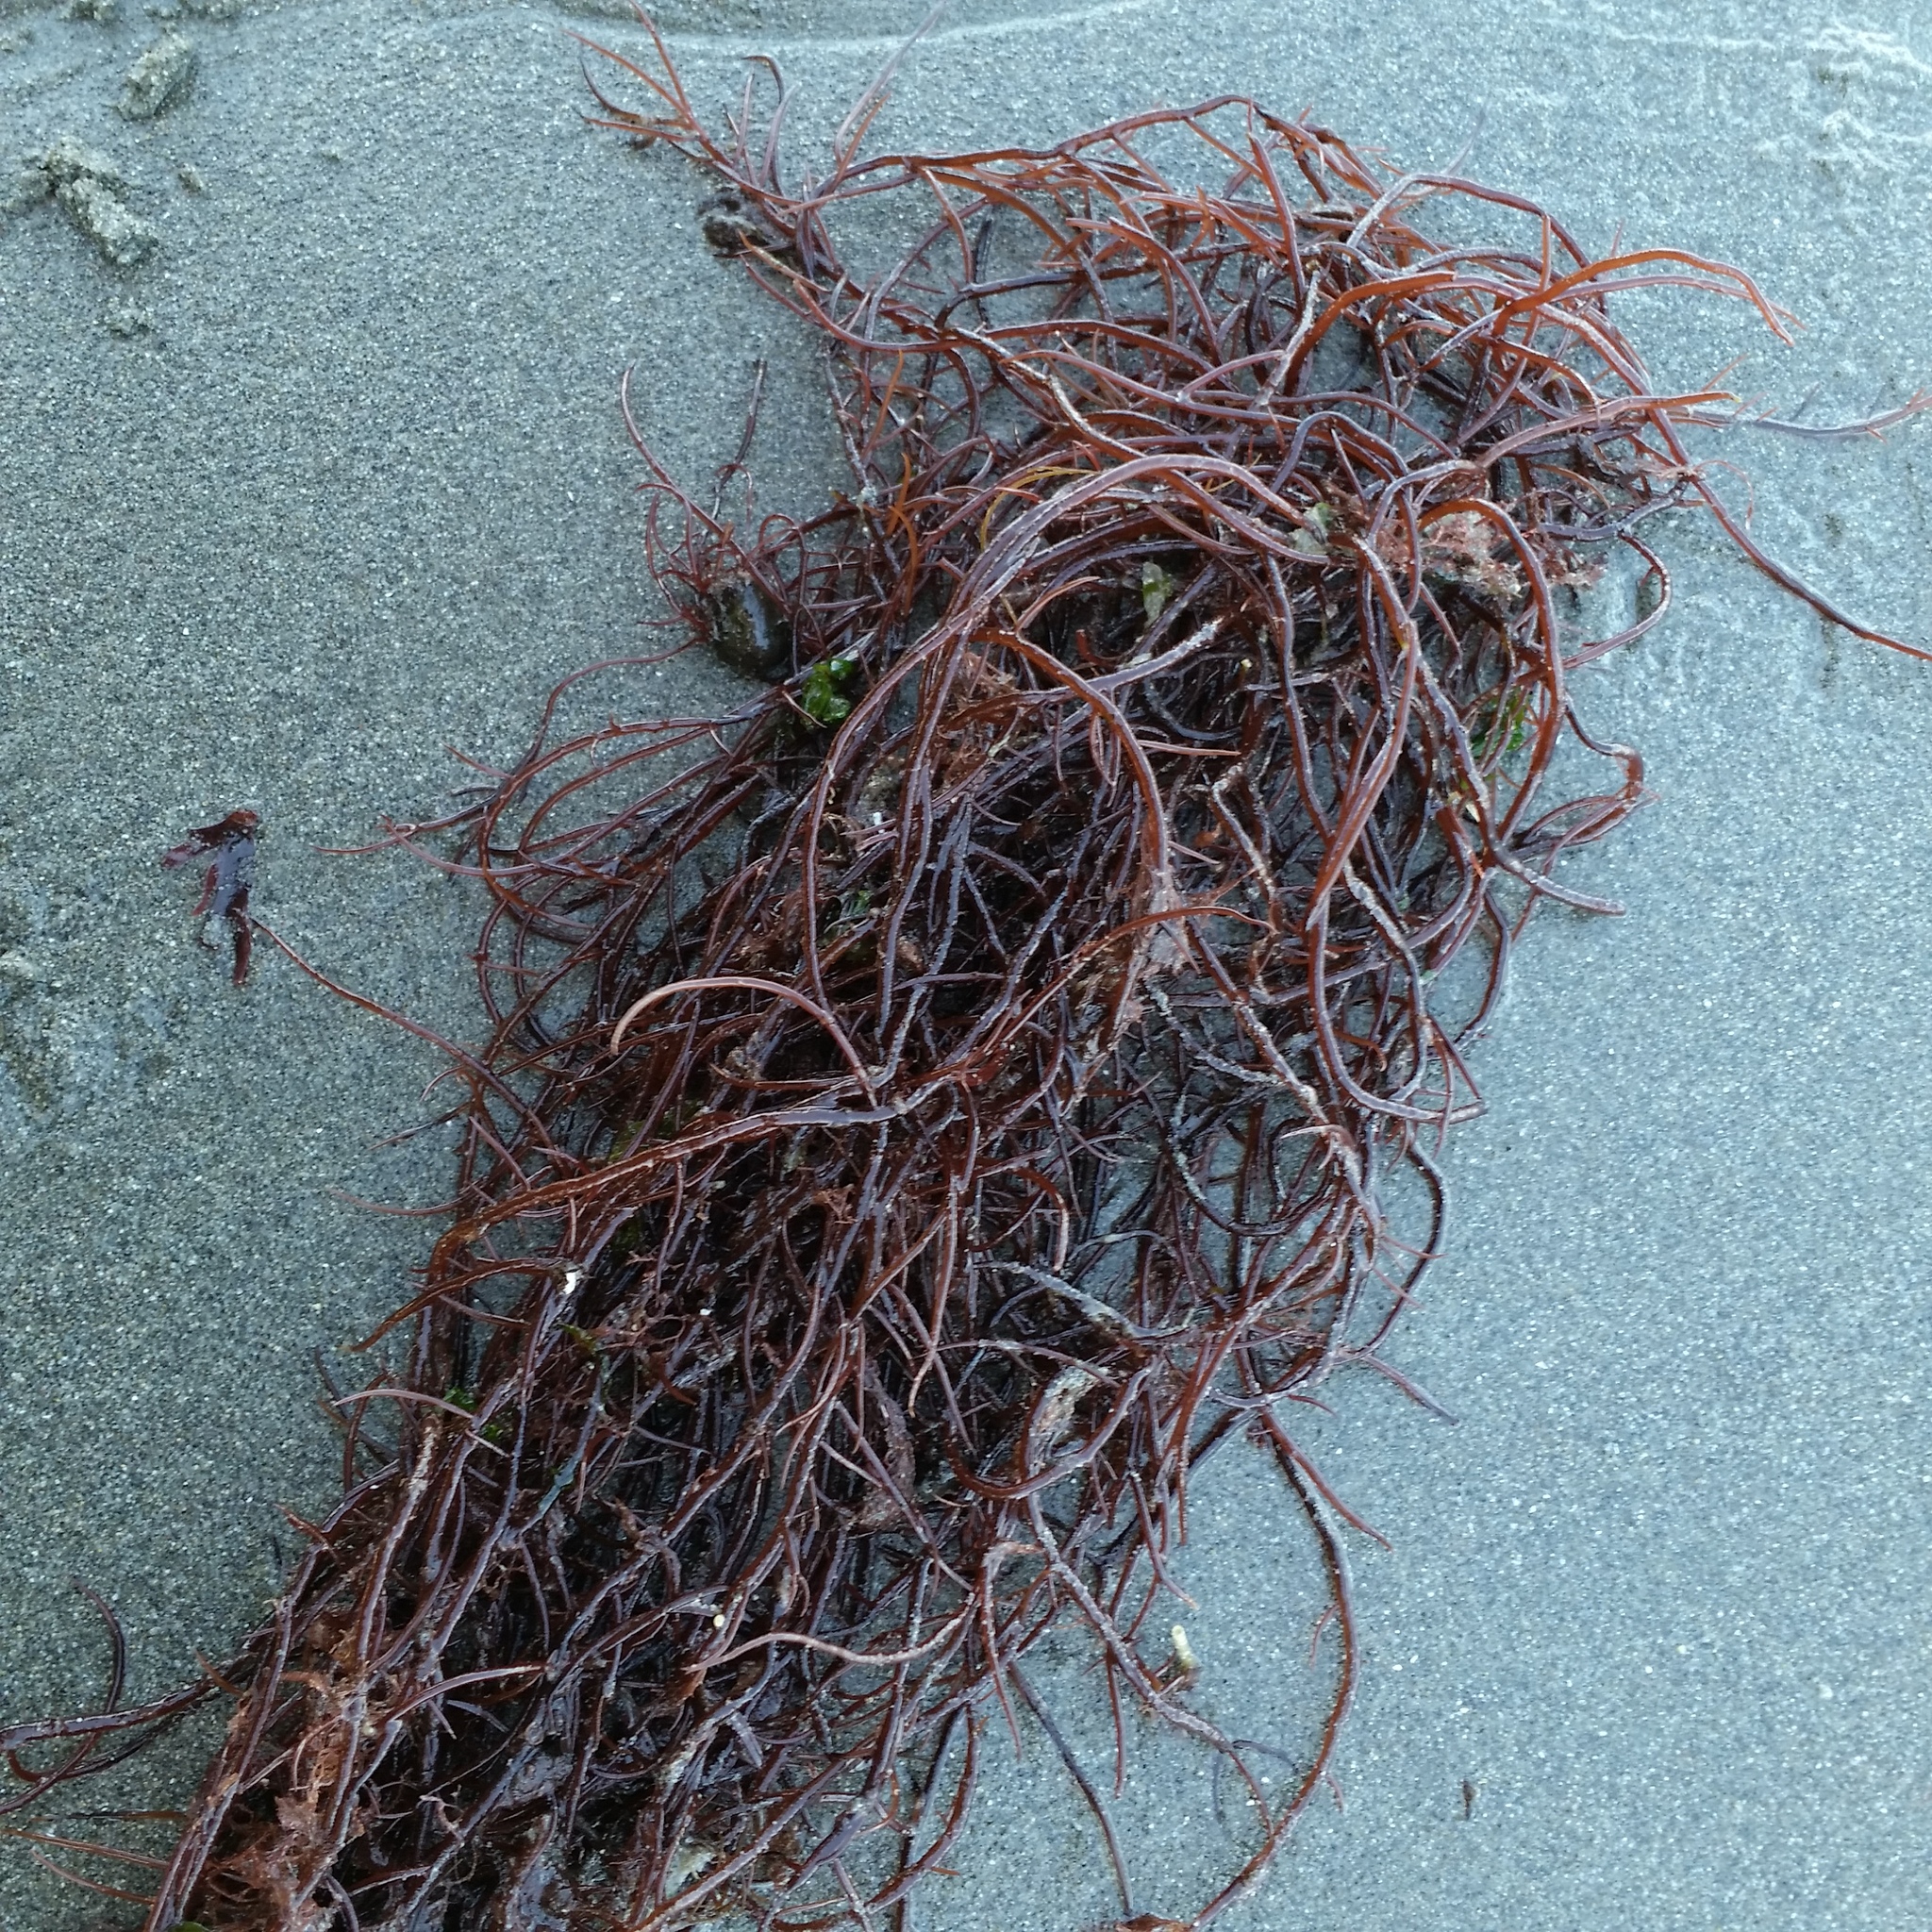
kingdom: Plantae
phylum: Rhodophyta
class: Florideophyceae
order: Gigartinales
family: Solieriaceae
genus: Sarcodiotheca
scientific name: Sarcodiotheca gaudichaudii
